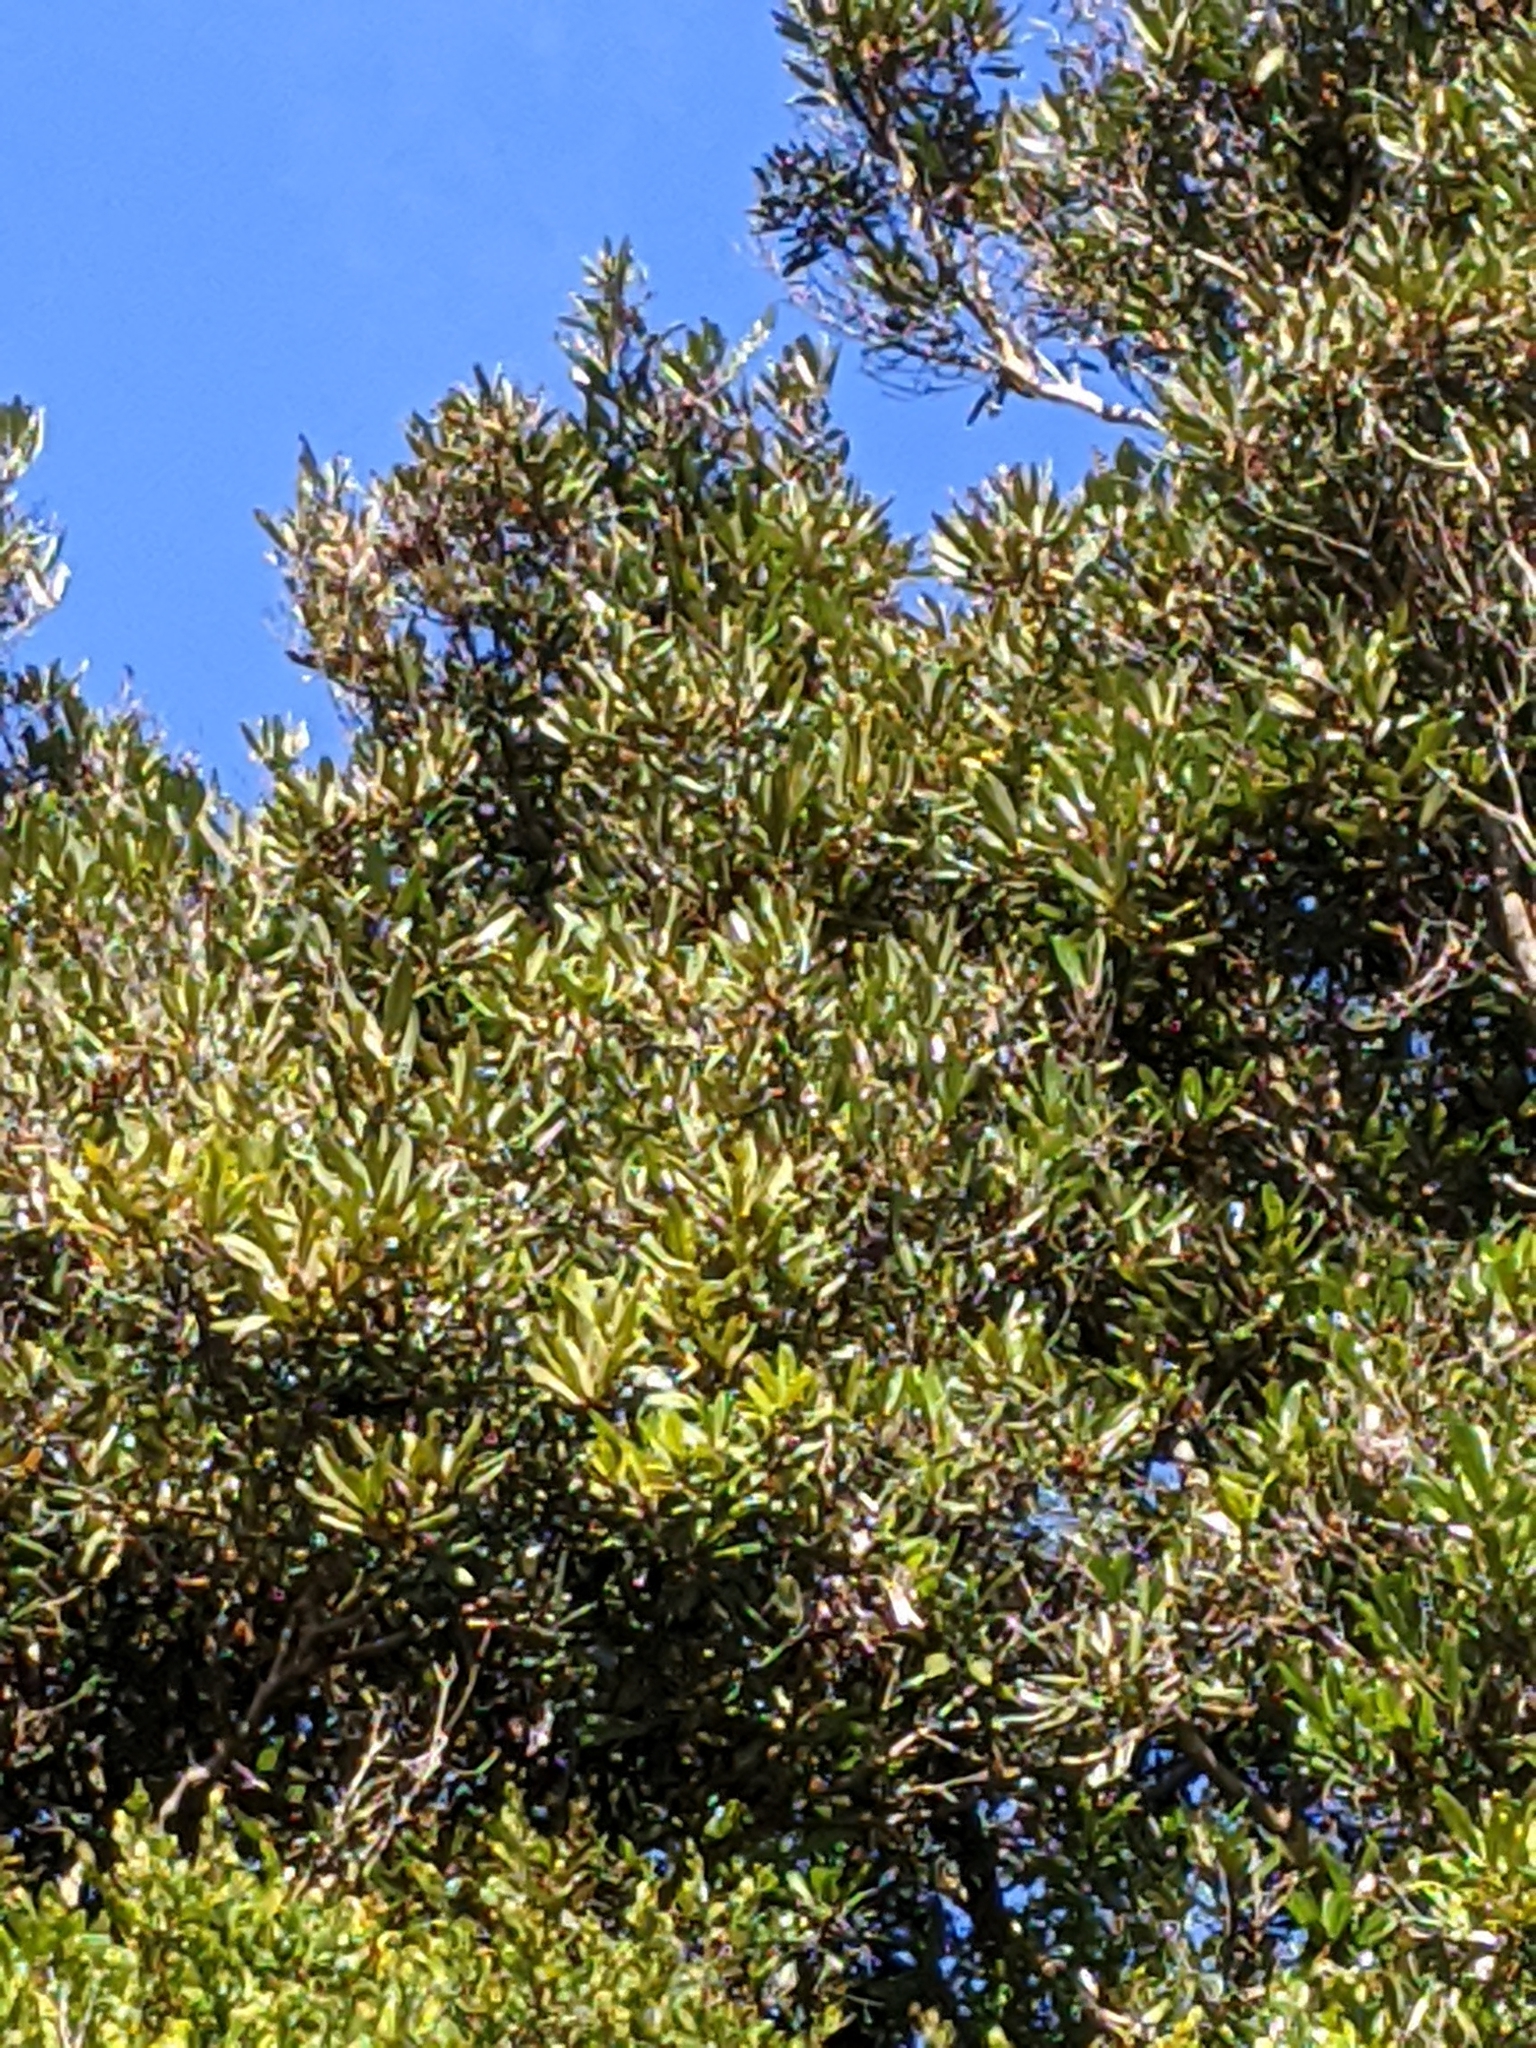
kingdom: Plantae
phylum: Tracheophyta
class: Magnoliopsida
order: Laurales
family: Lauraceae
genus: Cryptocarya
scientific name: Cryptocarya obovata
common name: Pepperberry-tree
